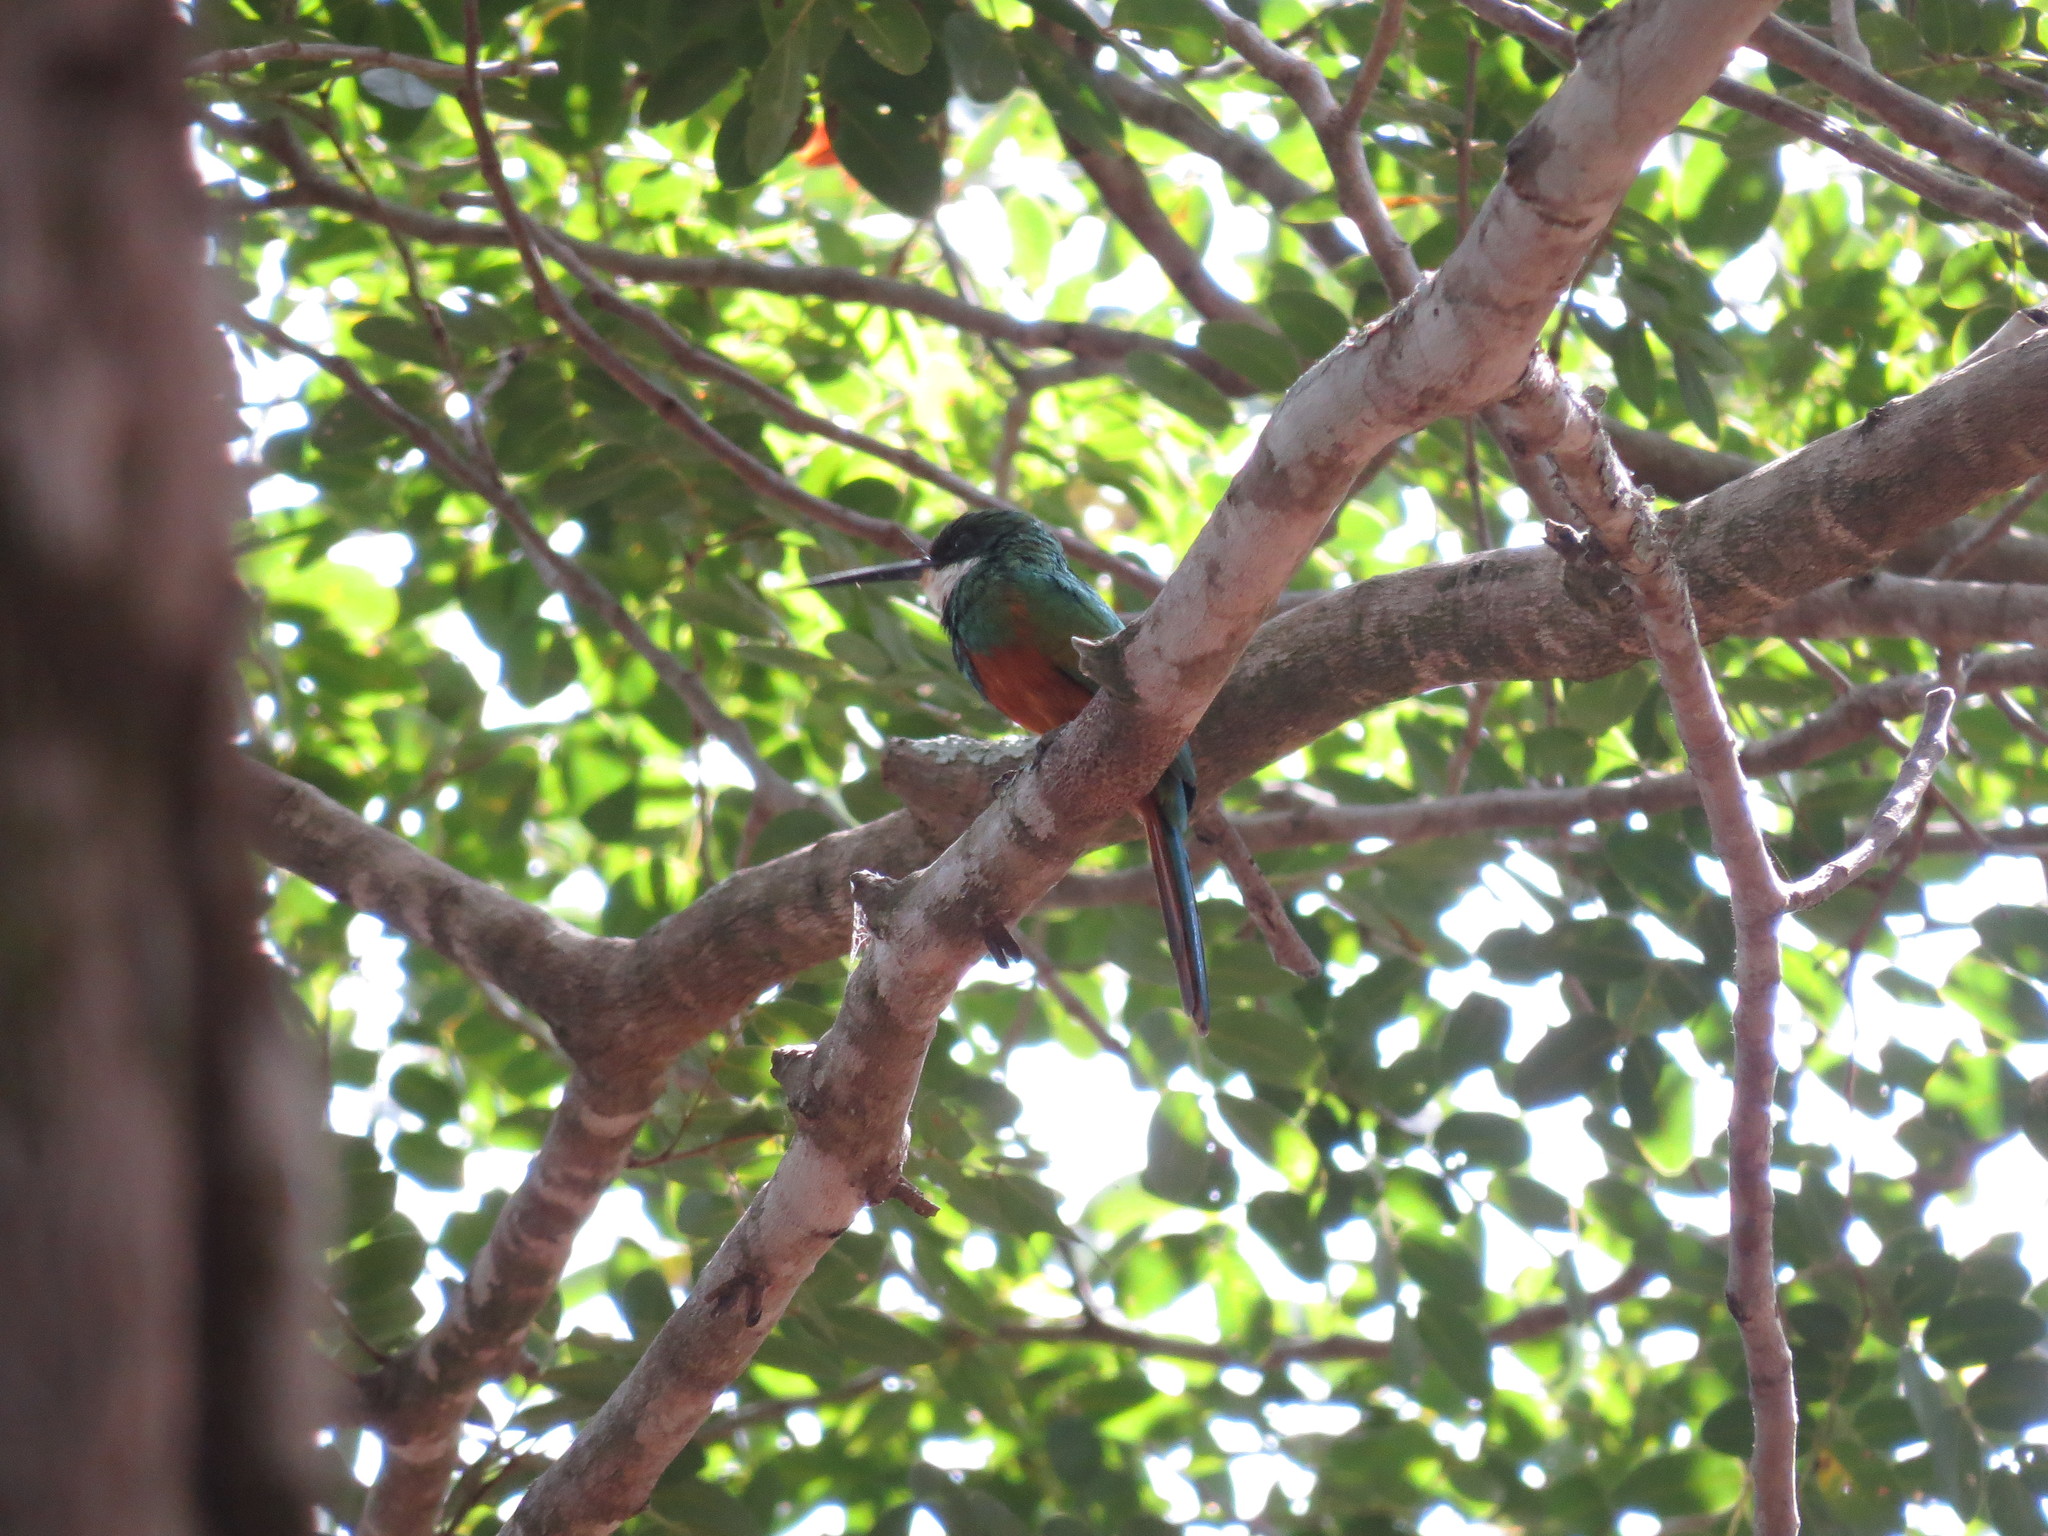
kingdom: Animalia
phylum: Chordata
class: Aves
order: Piciformes
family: Galbulidae
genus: Galbula
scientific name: Galbula ruficauda
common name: Rufous-tailed jacamar
